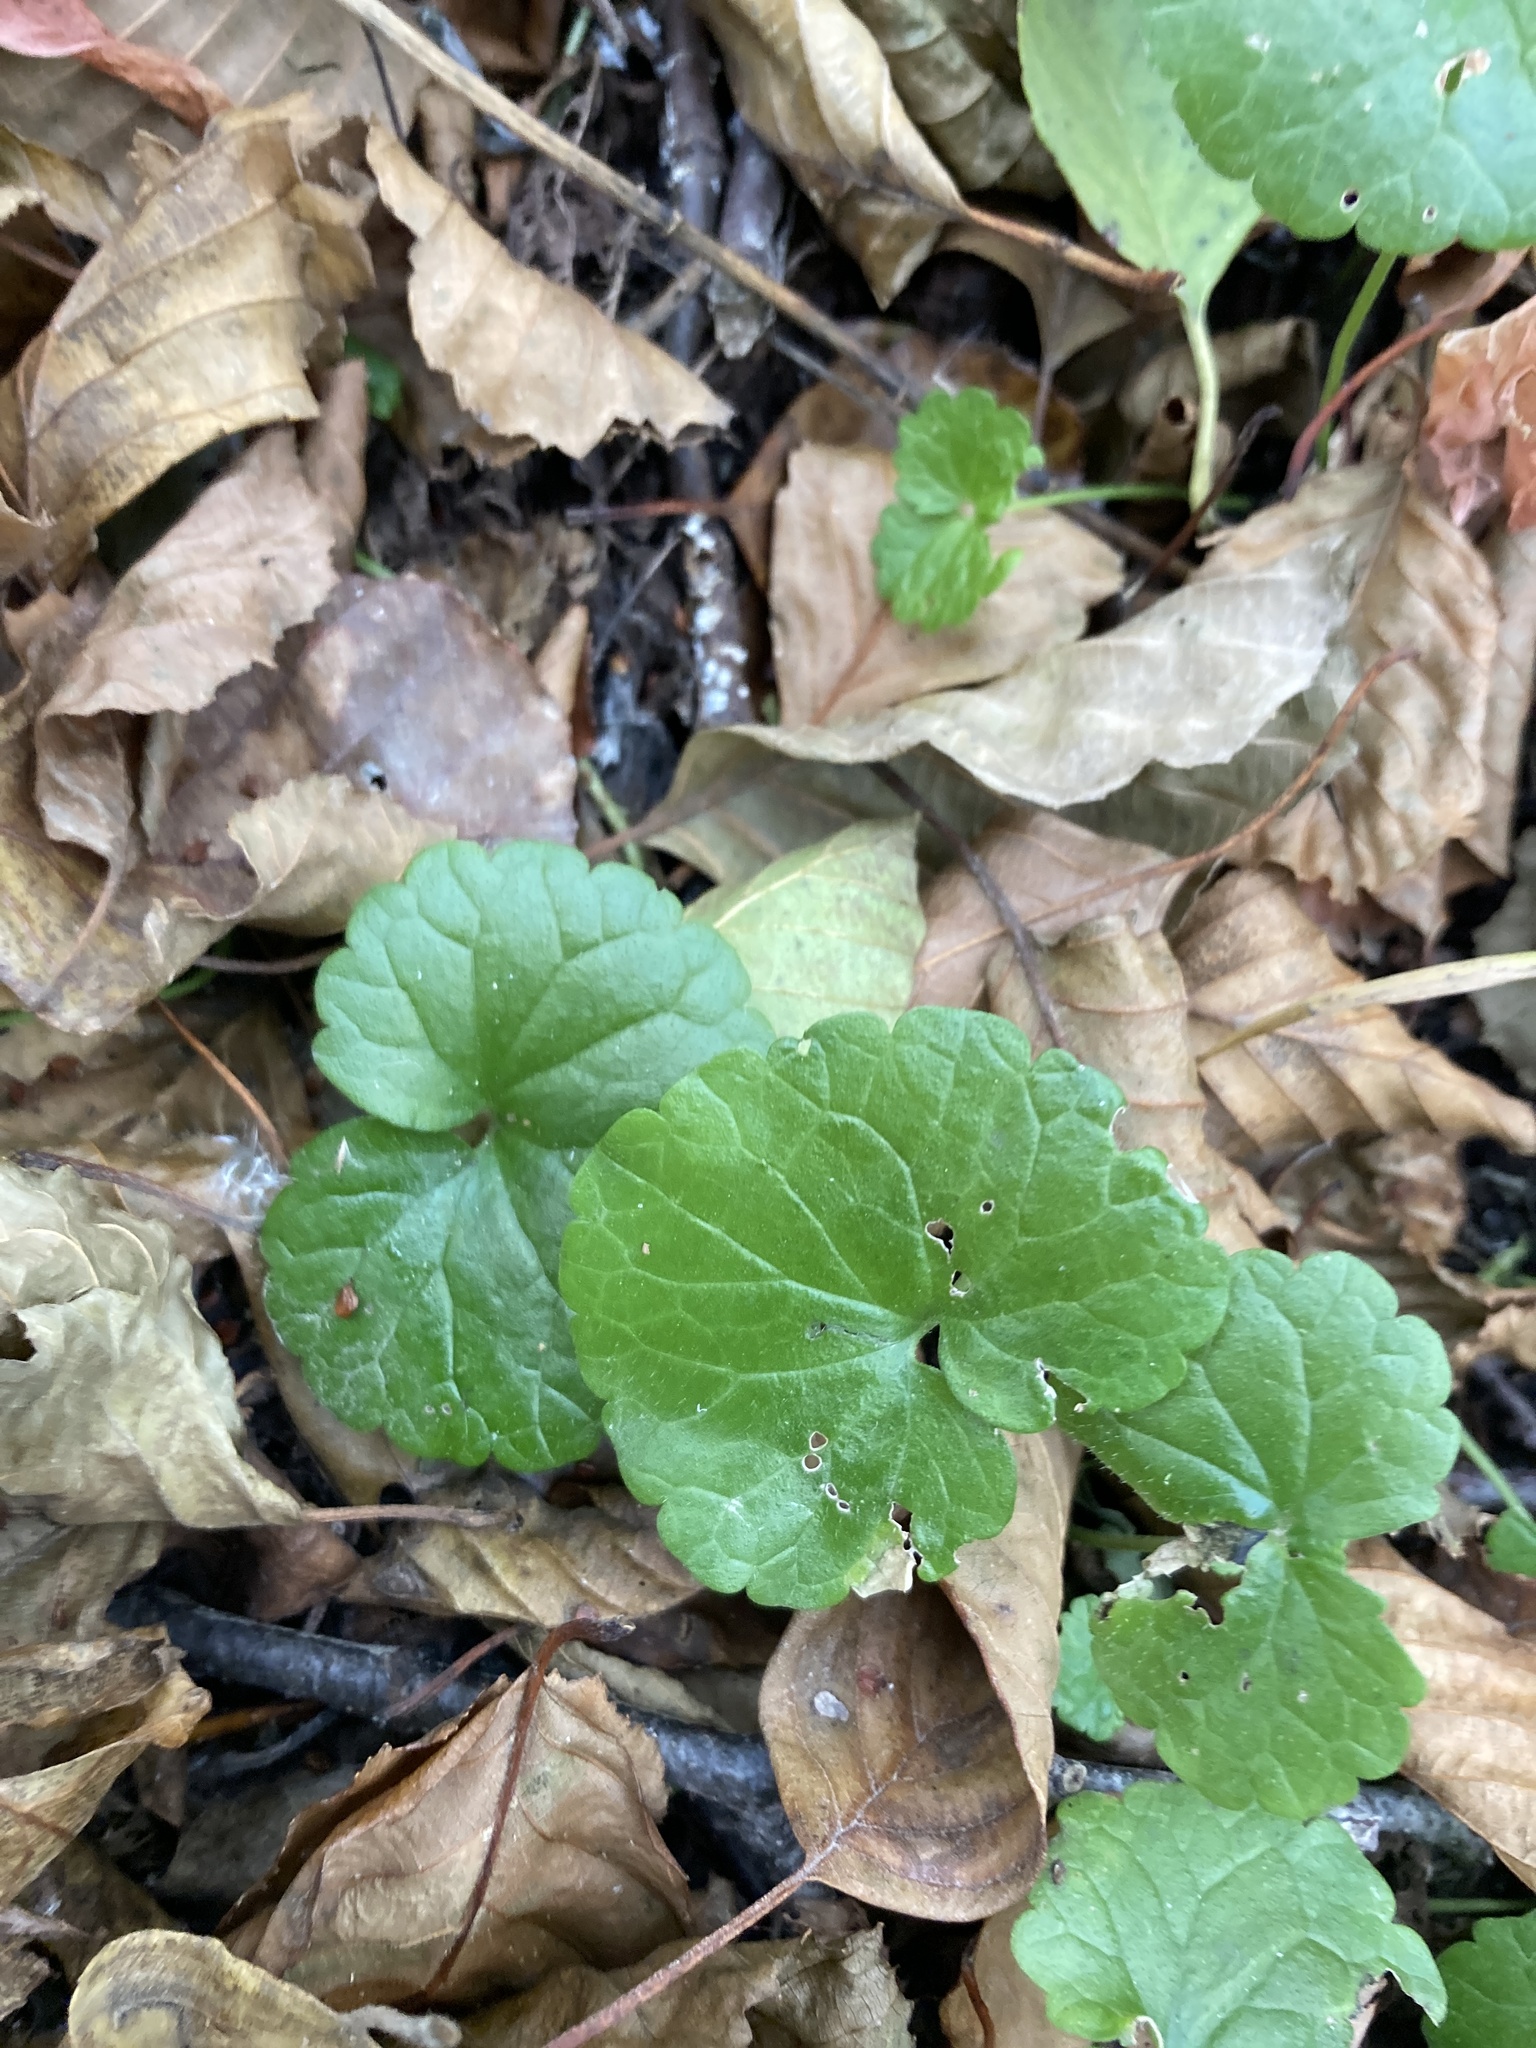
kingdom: Plantae
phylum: Tracheophyta
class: Magnoliopsida
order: Lamiales
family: Lamiaceae
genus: Glechoma
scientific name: Glechoma hederacea
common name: Ground ivy
